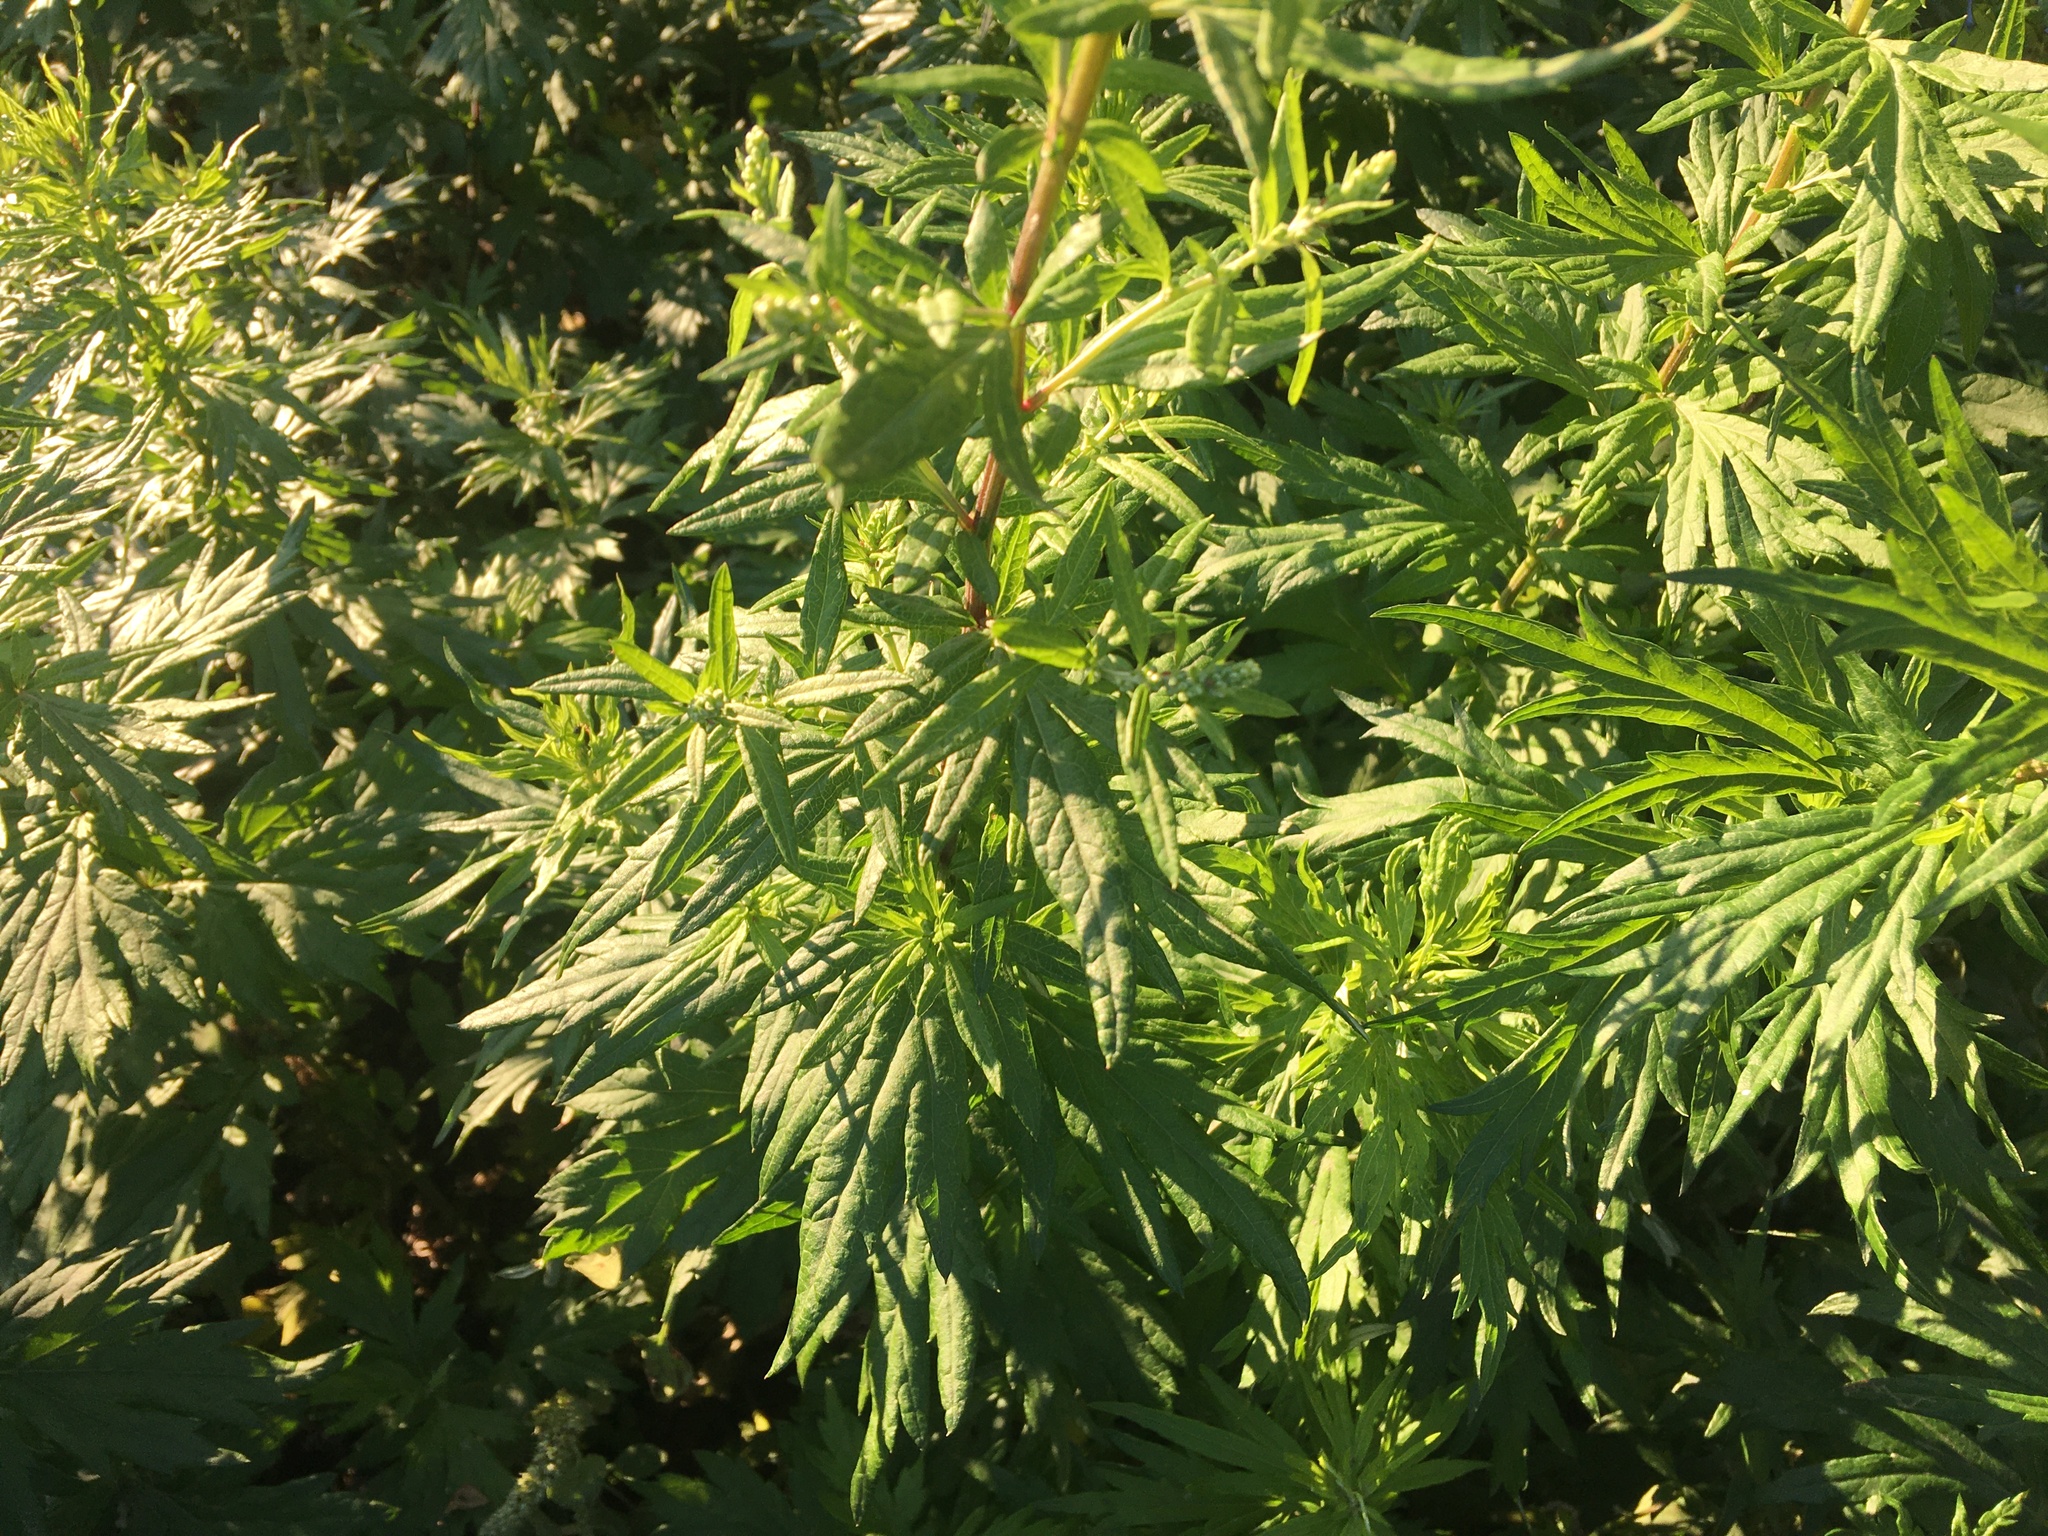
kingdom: Plantae
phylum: Tracheophyta
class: Magnoliopsida
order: Asterales
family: Asteraceae
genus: Artemisia
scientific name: Artemisia vulgaris
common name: Mugwort
